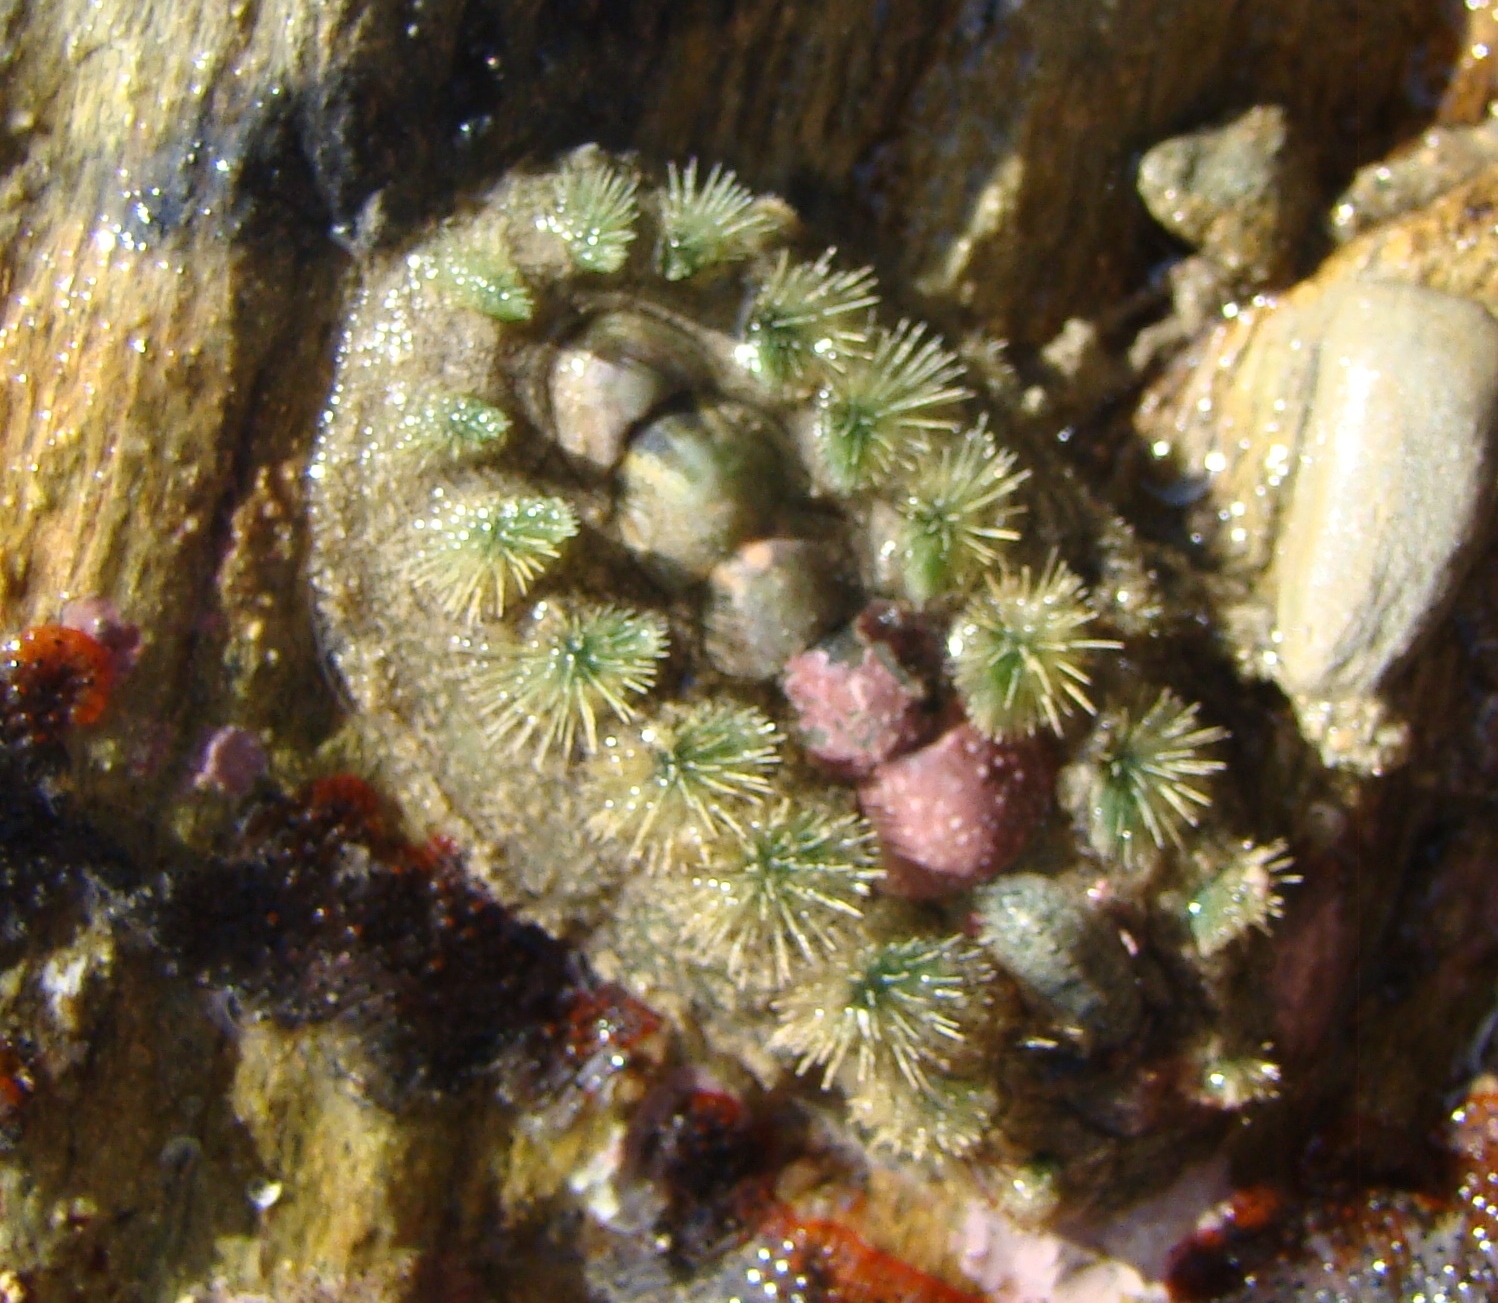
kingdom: Animalia
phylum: Mollusca
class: Polyplacophora
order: Chitonida
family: Acanthochitonidae
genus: Acanthochitona
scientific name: Acanthochitona zelandica
